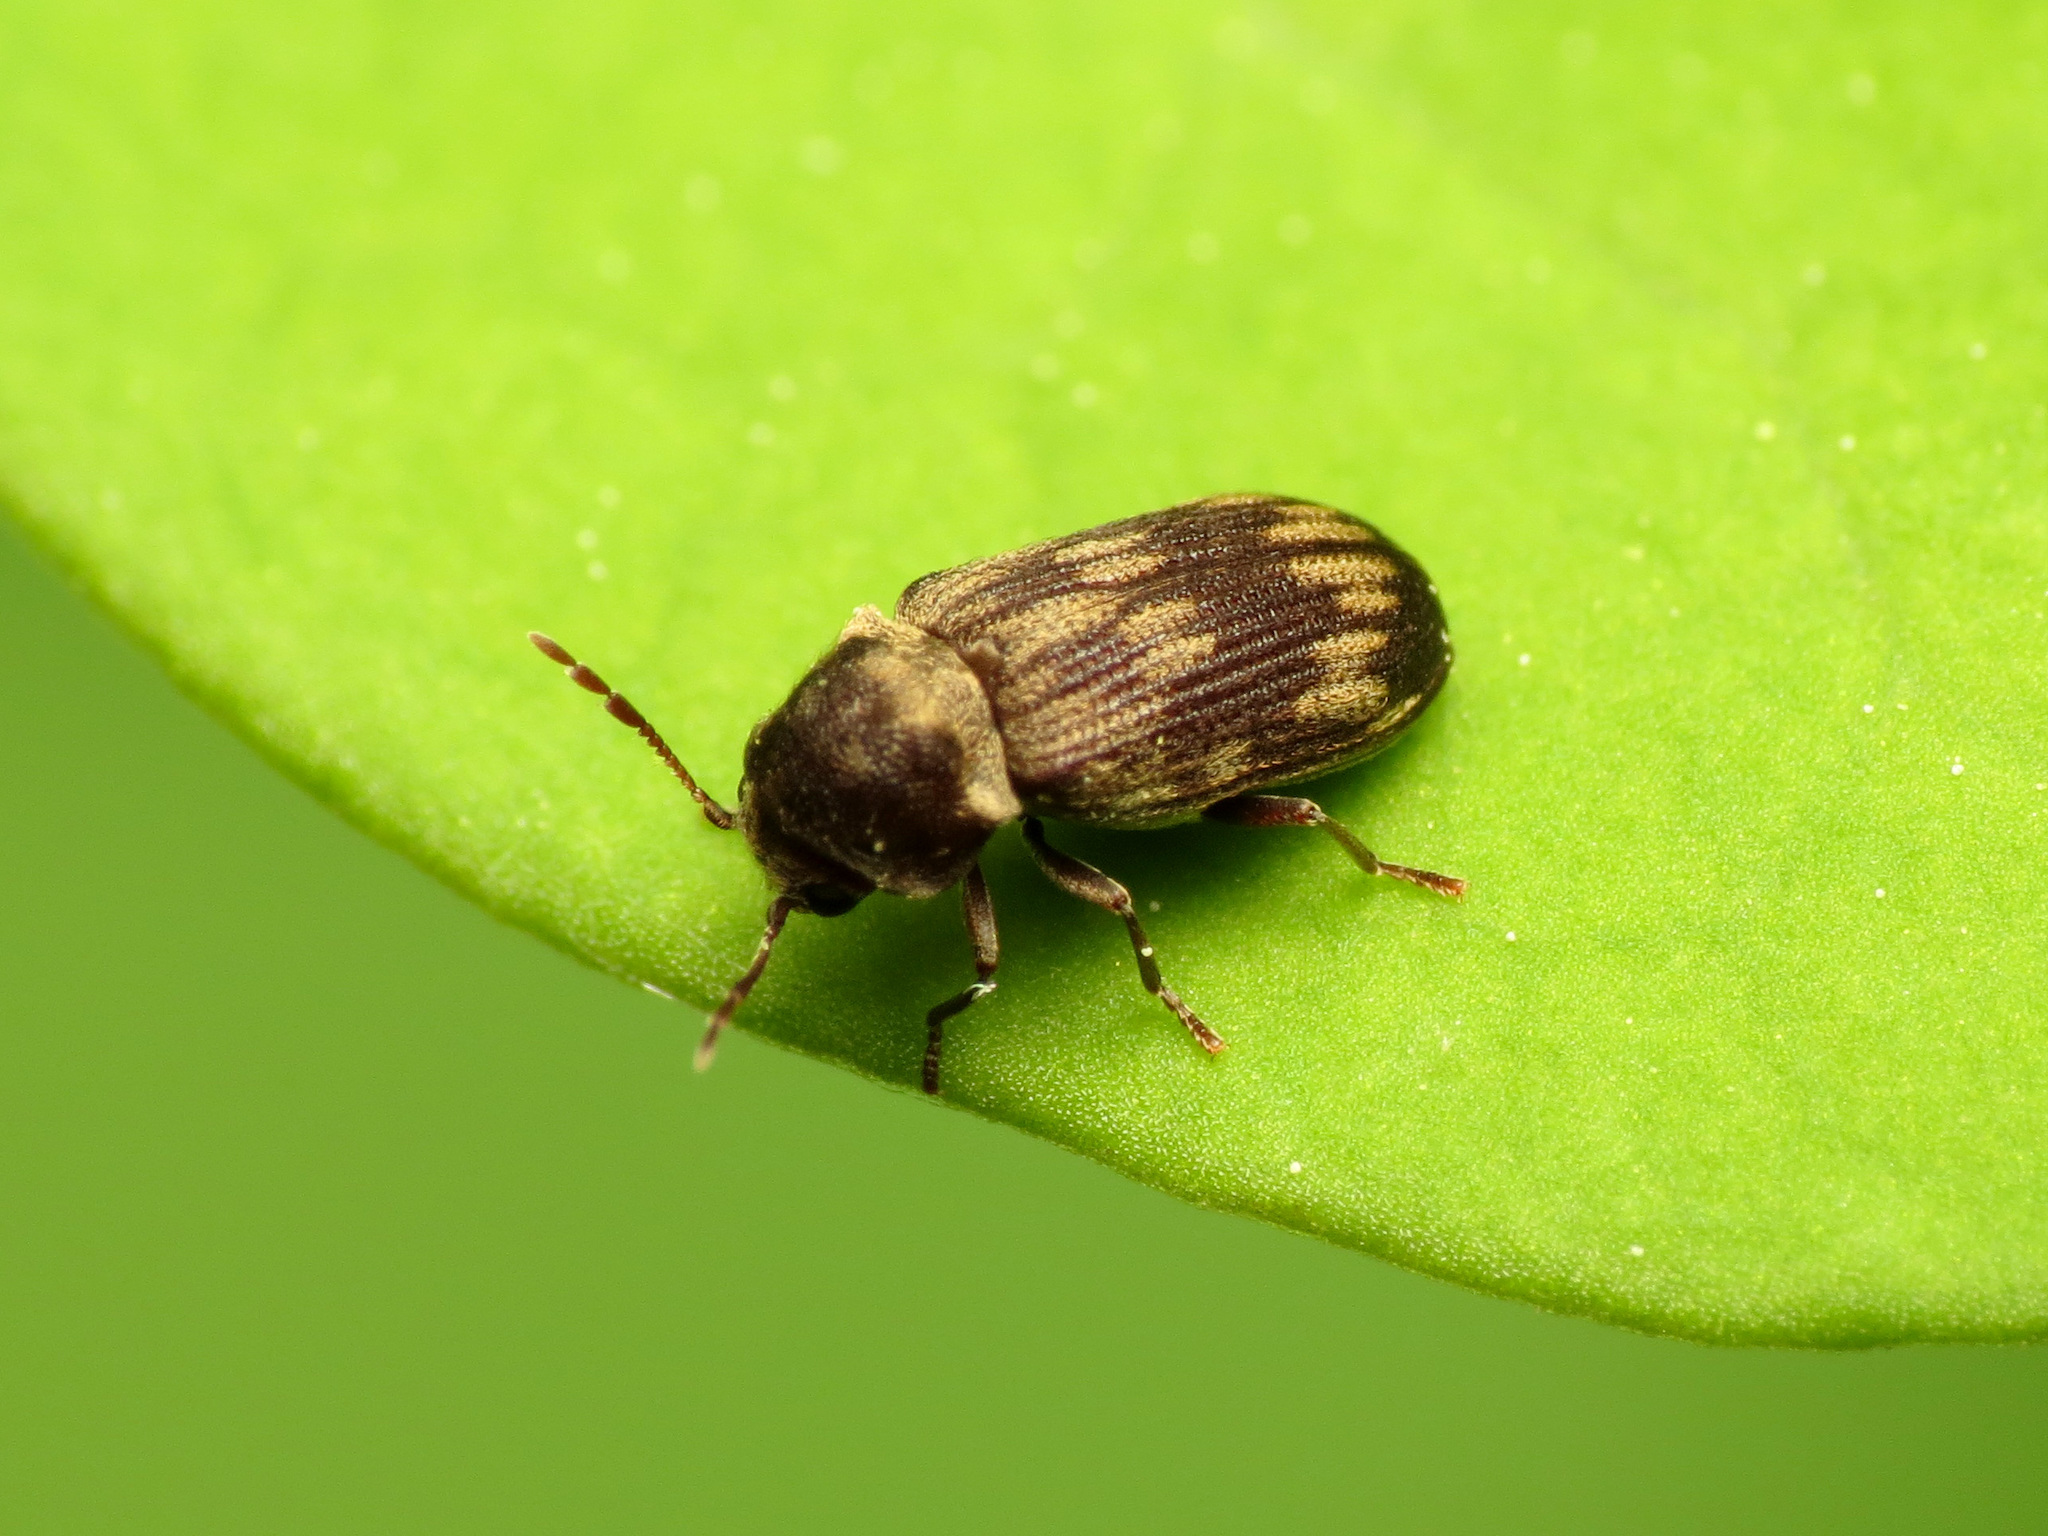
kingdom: Animalia
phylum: Arthropoda
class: Insecta
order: Coleoptera
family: Anobiidae
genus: Hadrobregmus
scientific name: Hadrobregmus notatus
